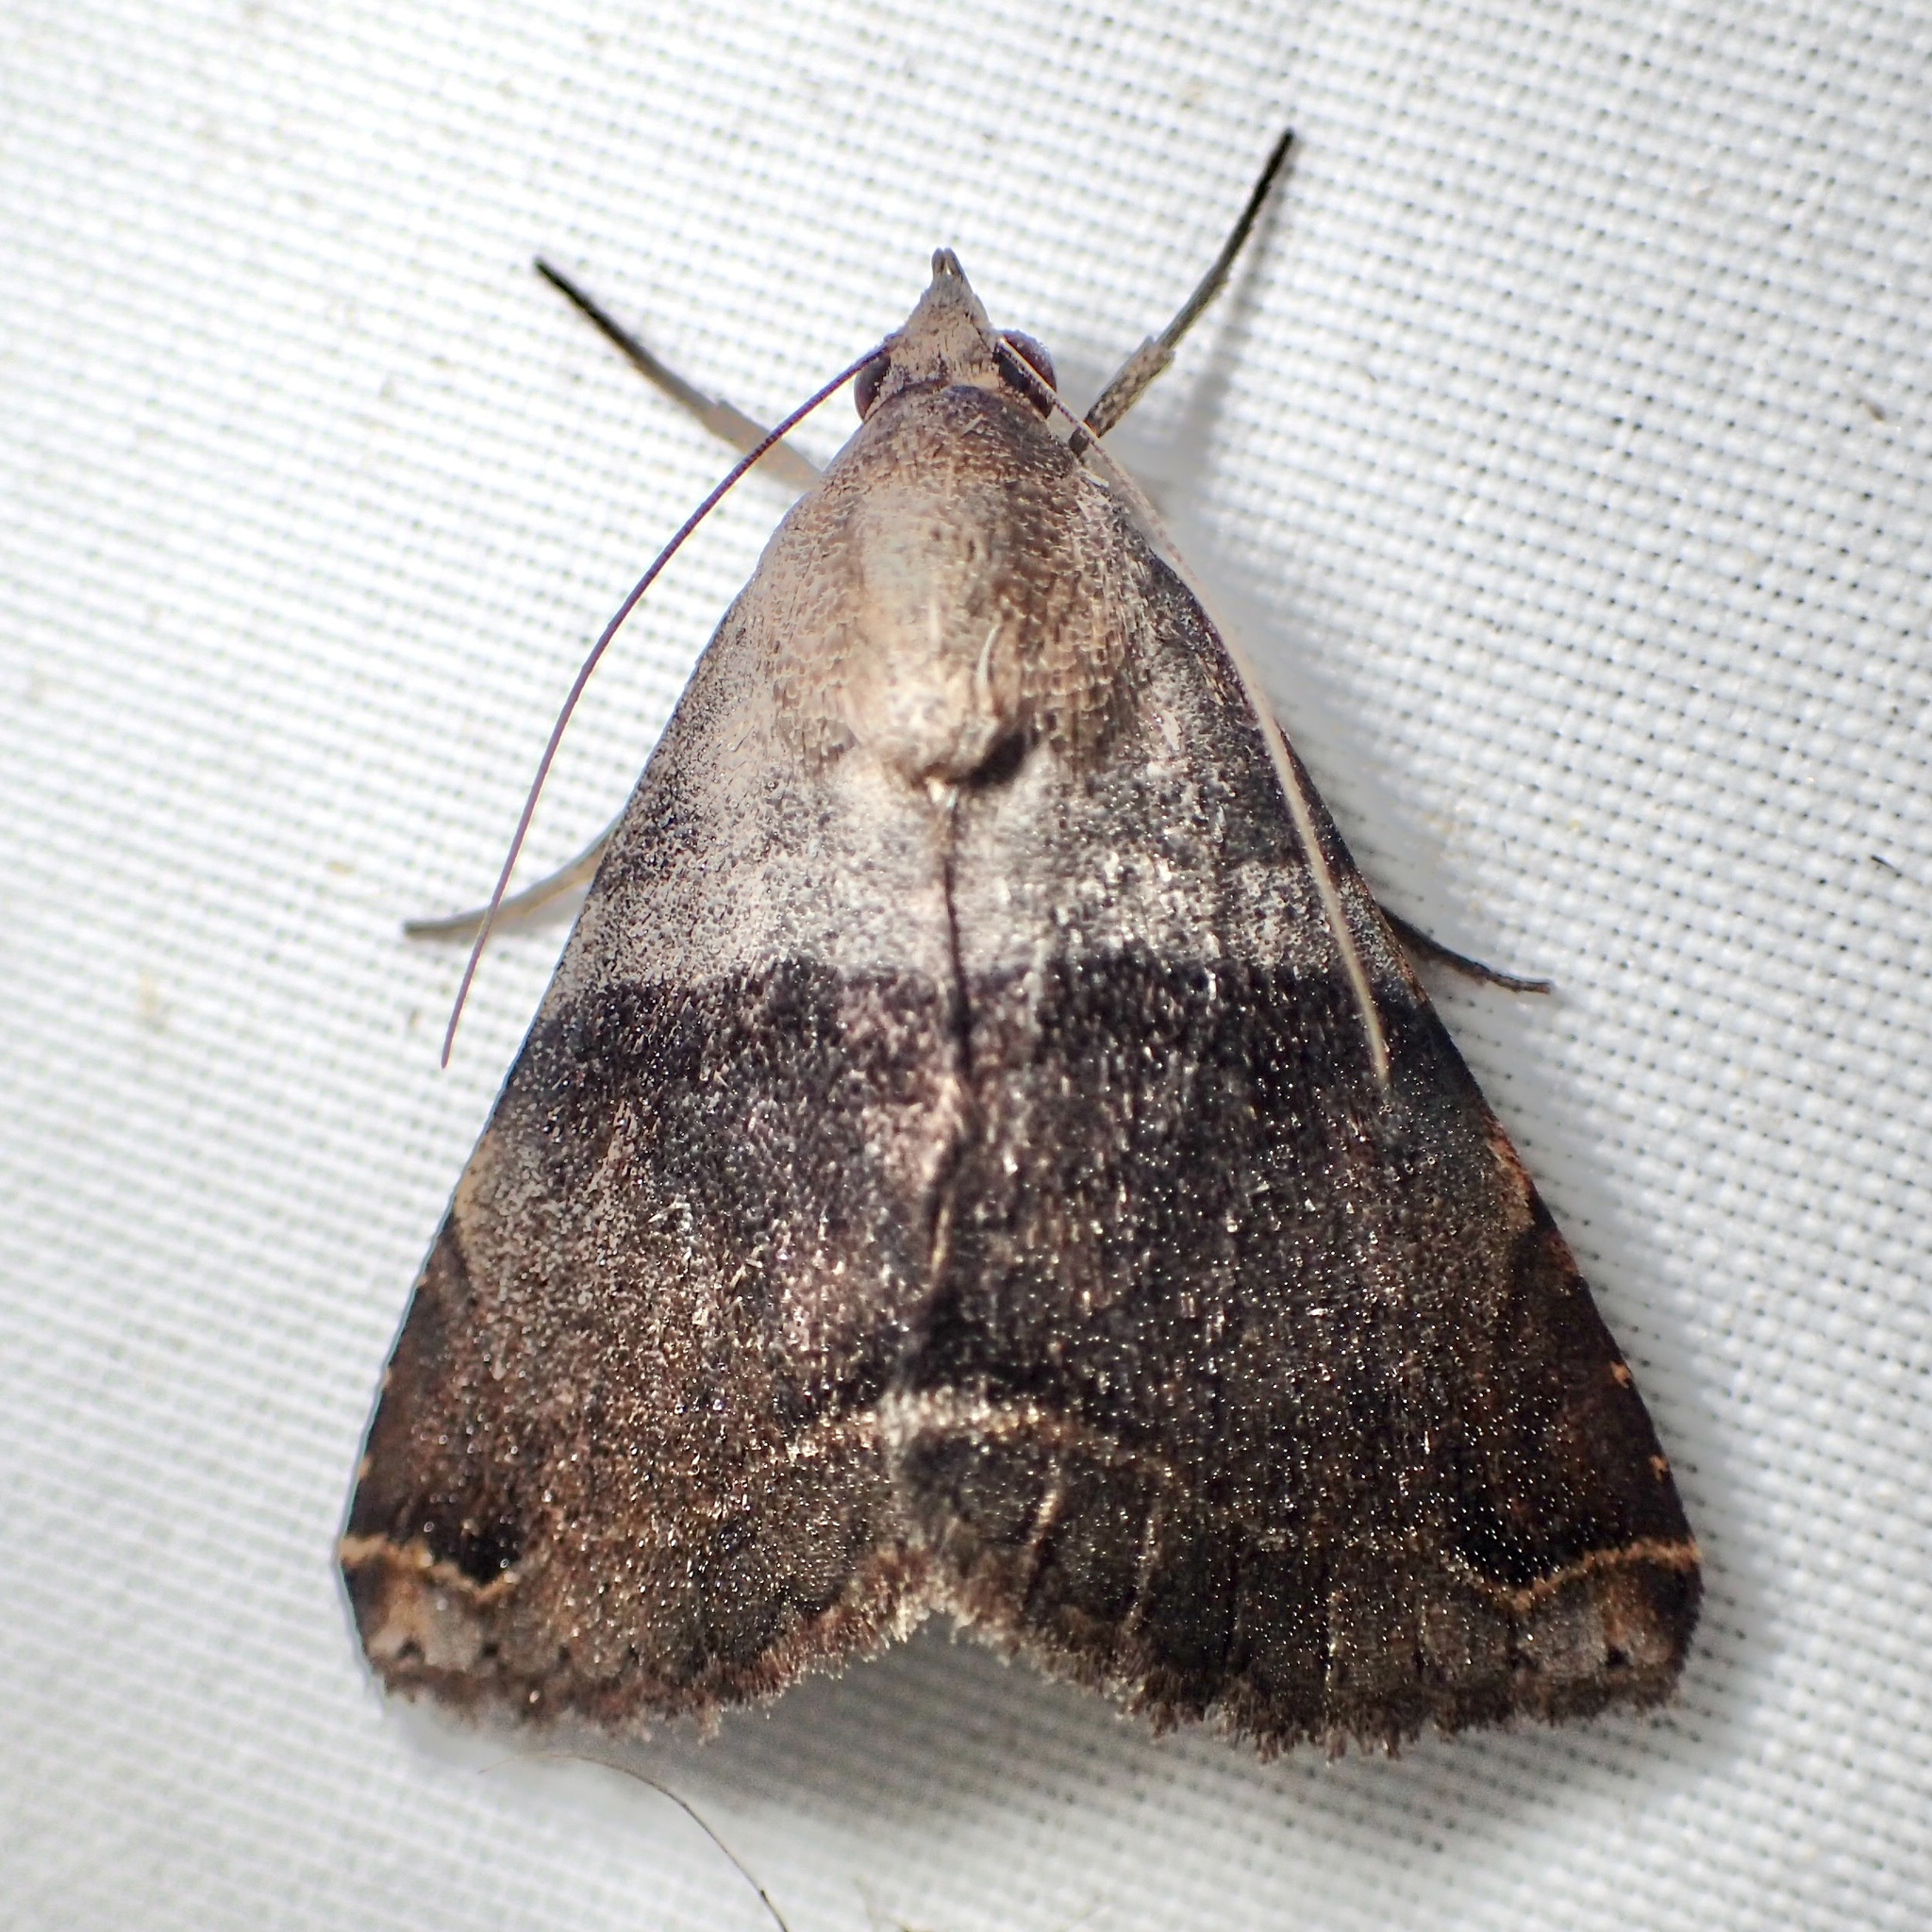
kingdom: Animalia
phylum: Arthropoda
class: Insecta
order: Lepidoptera
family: Erebidae
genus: Panula
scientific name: Panula inconstans
